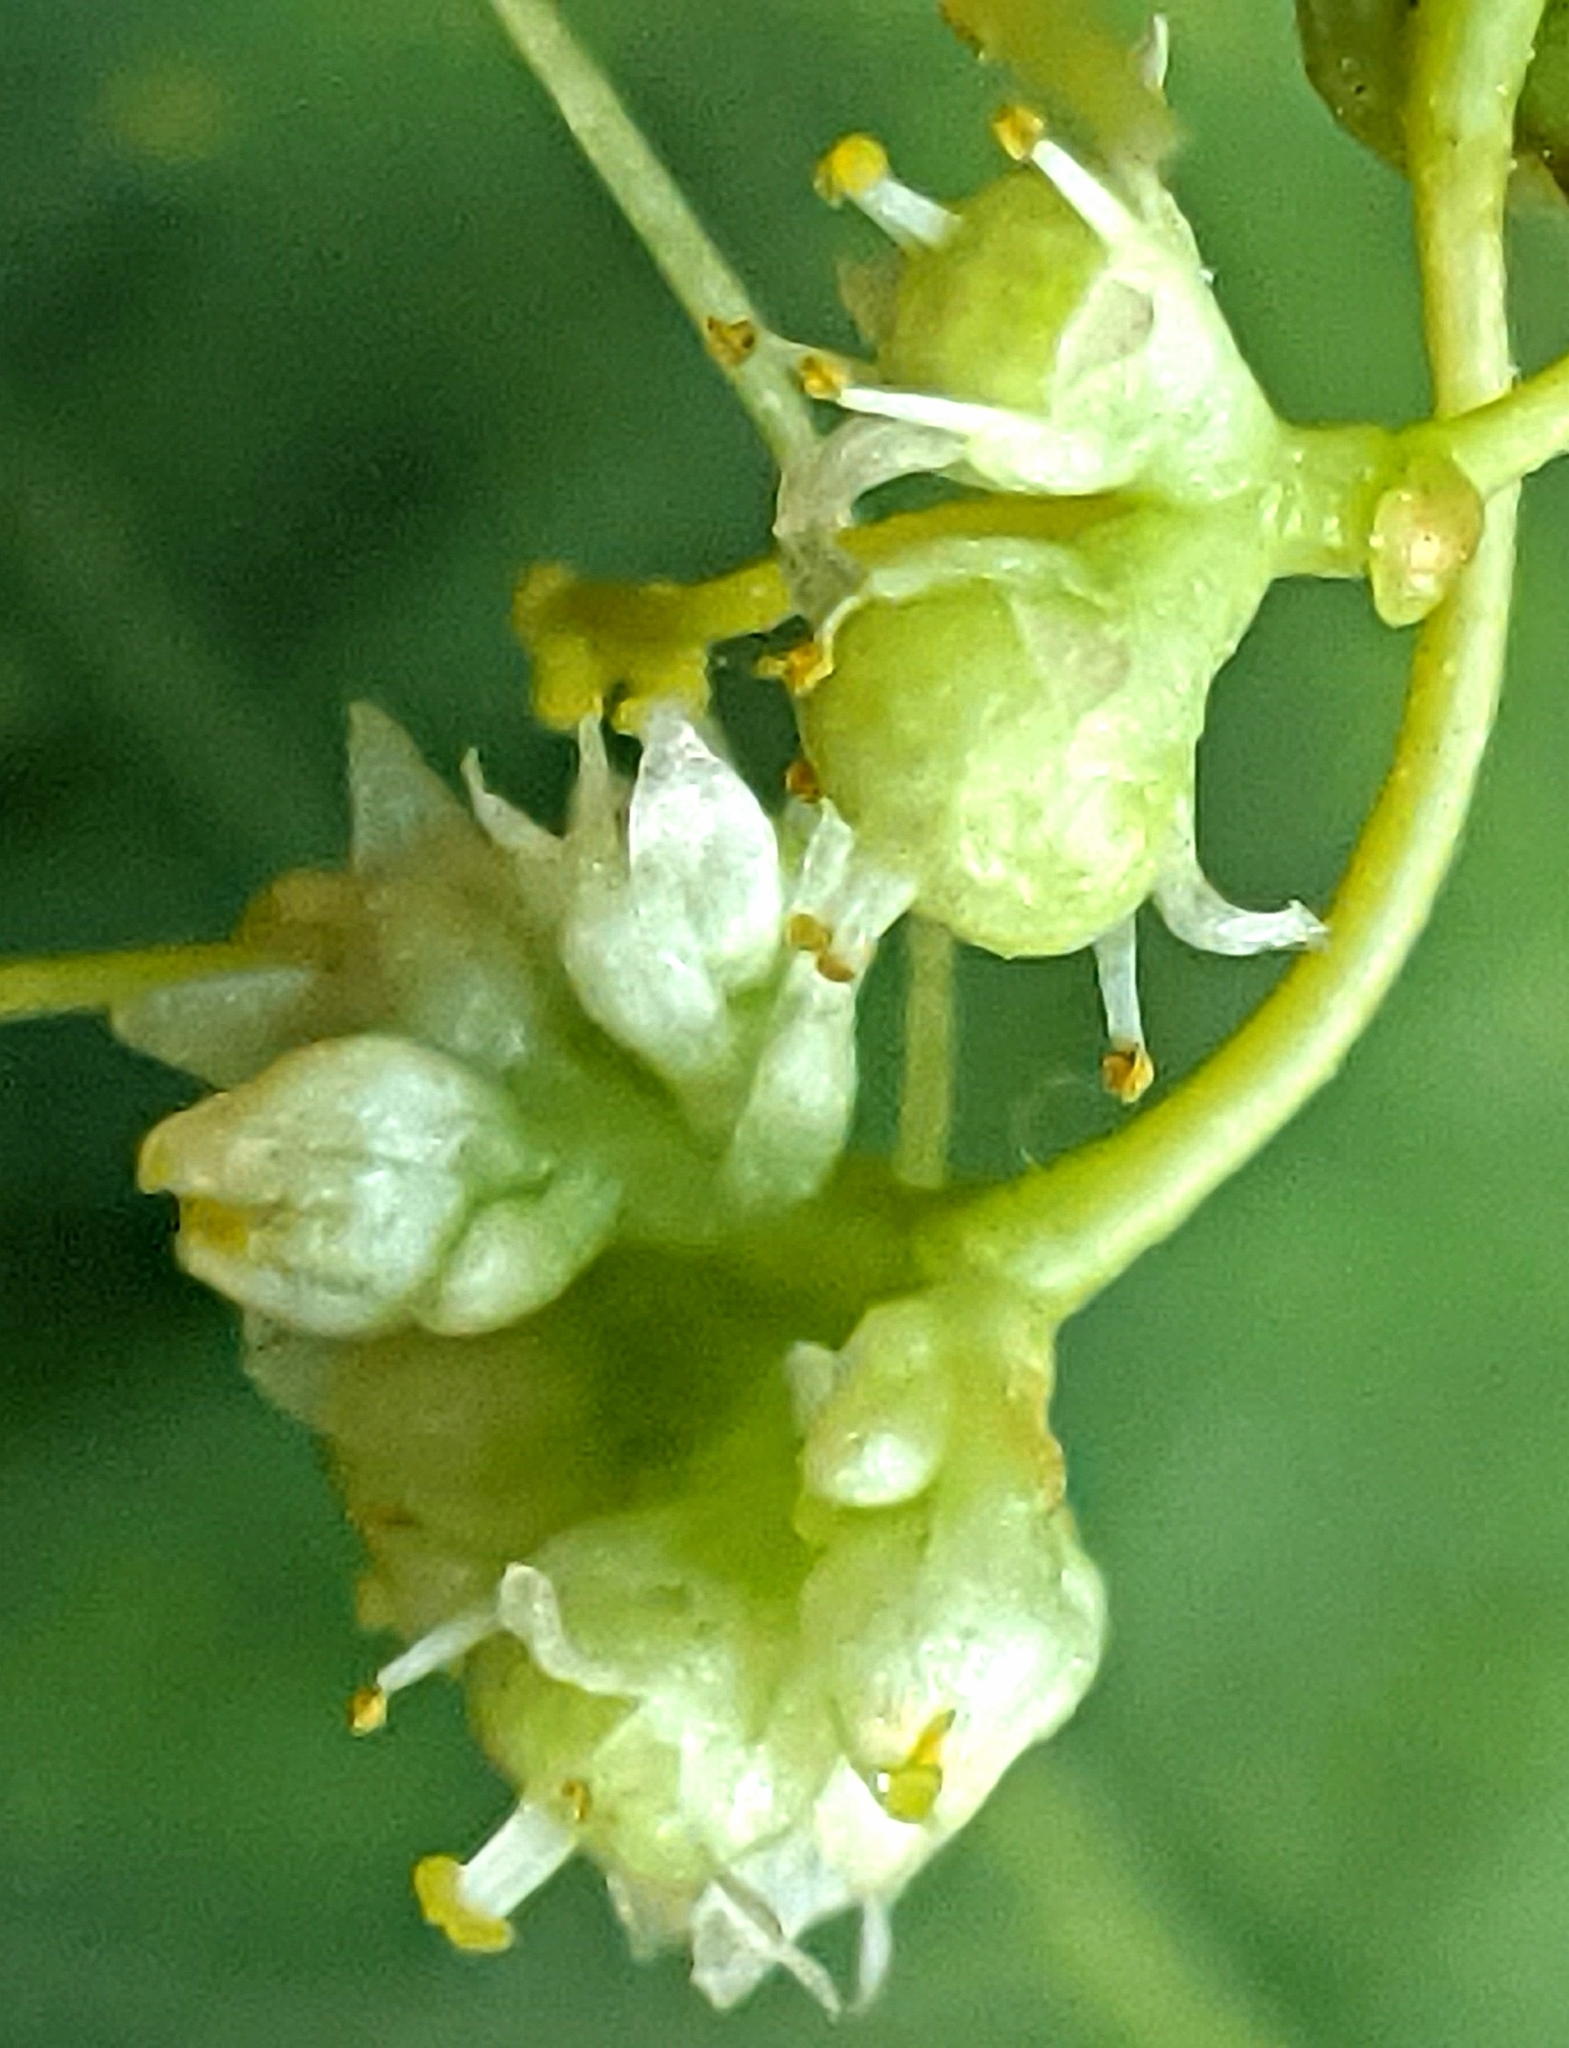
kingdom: Plantae
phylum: Tracheophyta
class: Magnoliopsida
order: Solanales
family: Convolvulaceae
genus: Cuscuta
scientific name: Cuscuta polygonorum
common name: Polygonum dodder
